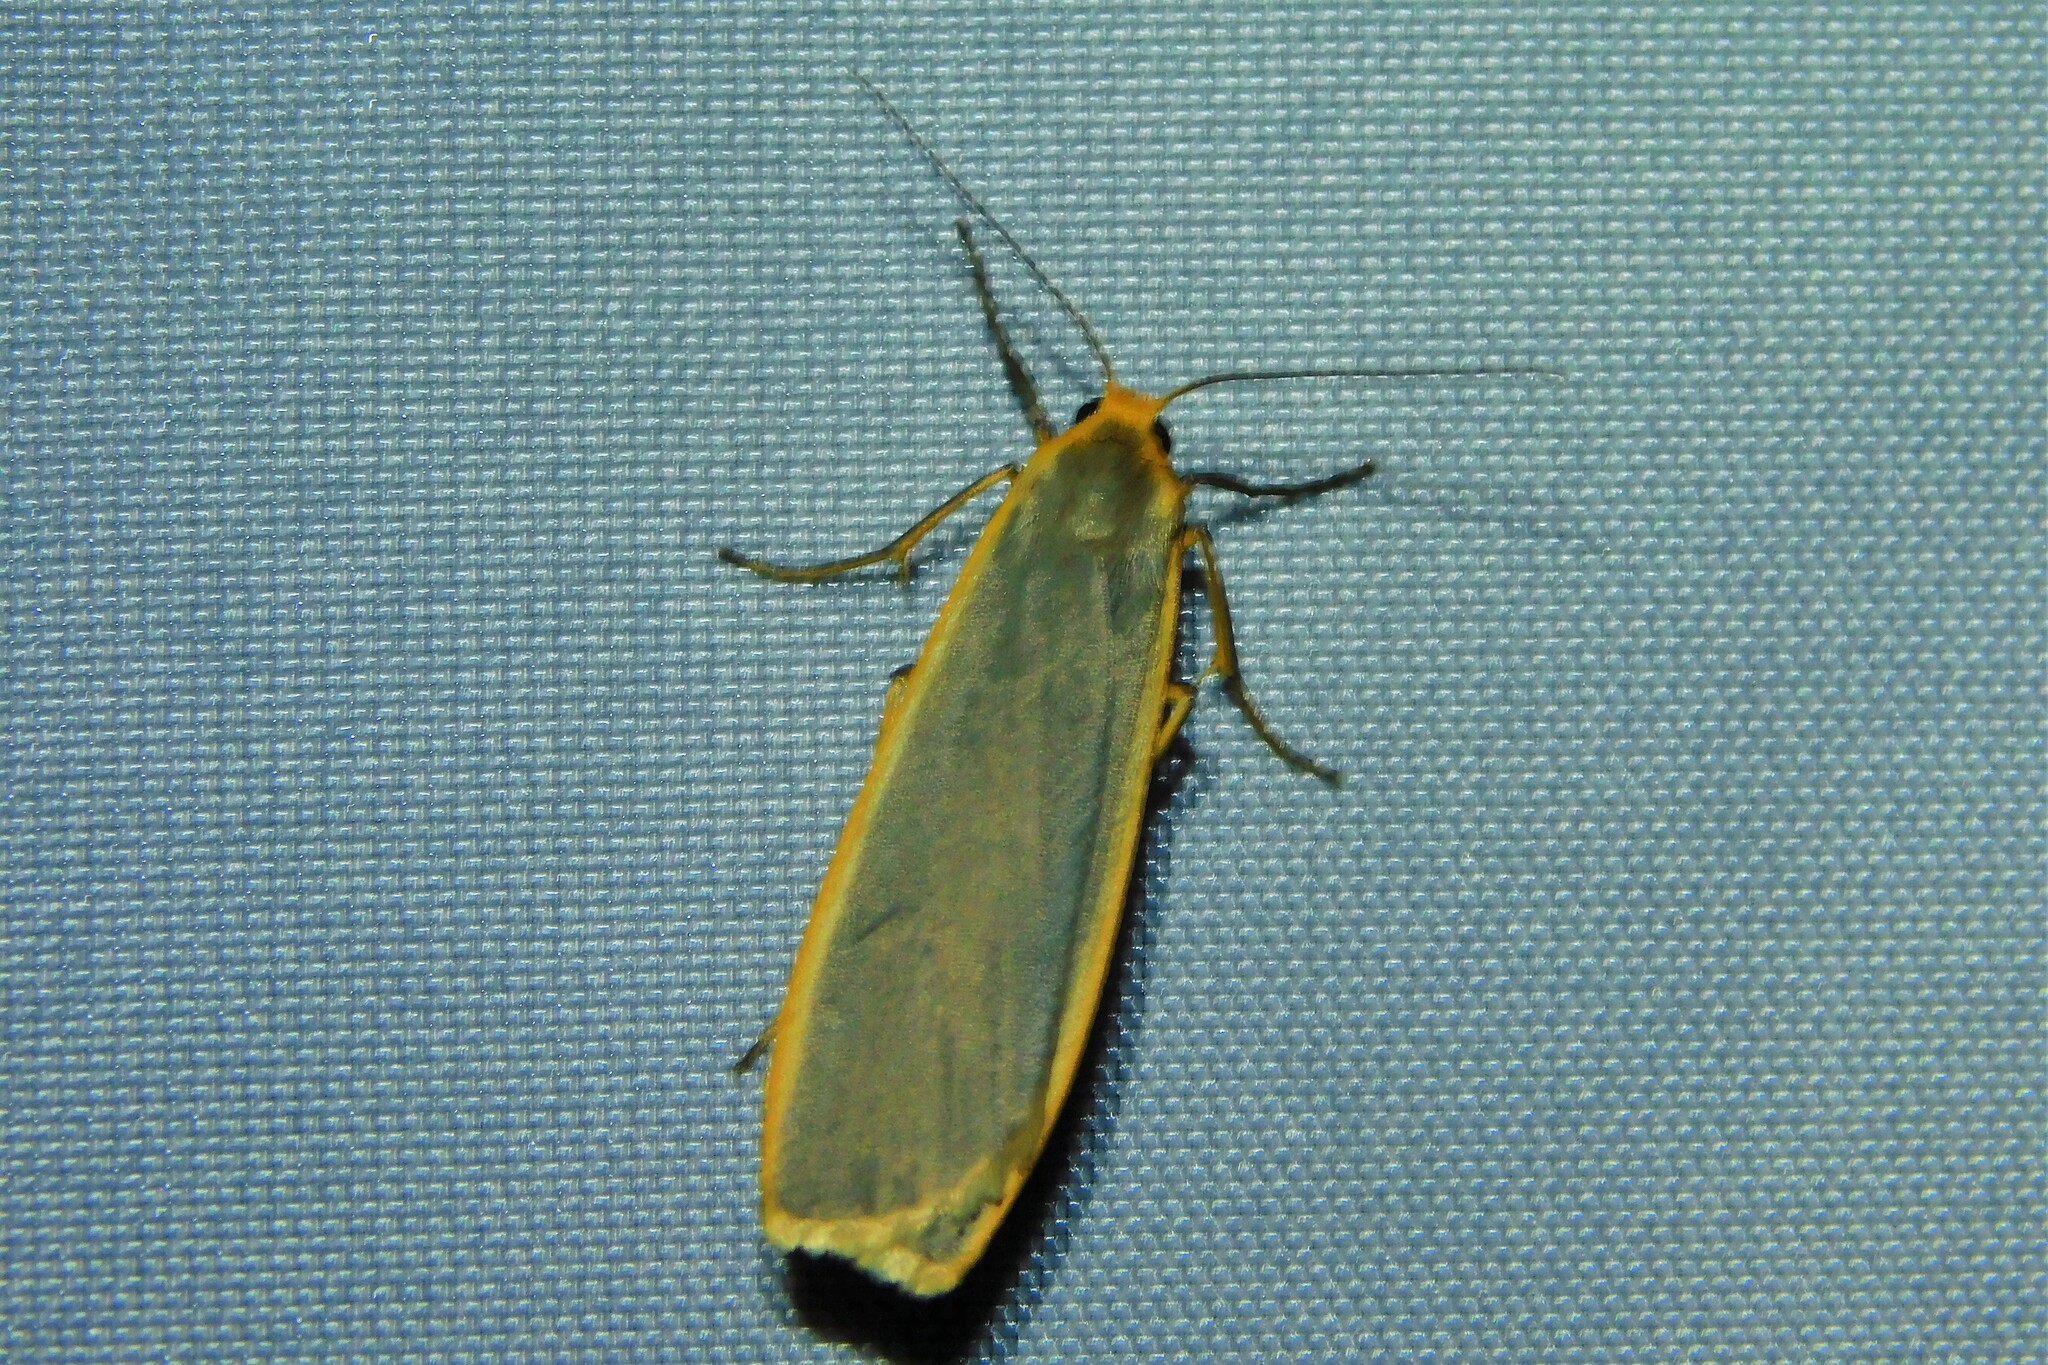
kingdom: Animalia
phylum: Arthropoda
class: Insecta
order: Lepidoptera
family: Erebidae
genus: Nyea
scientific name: Nyea lurideola
